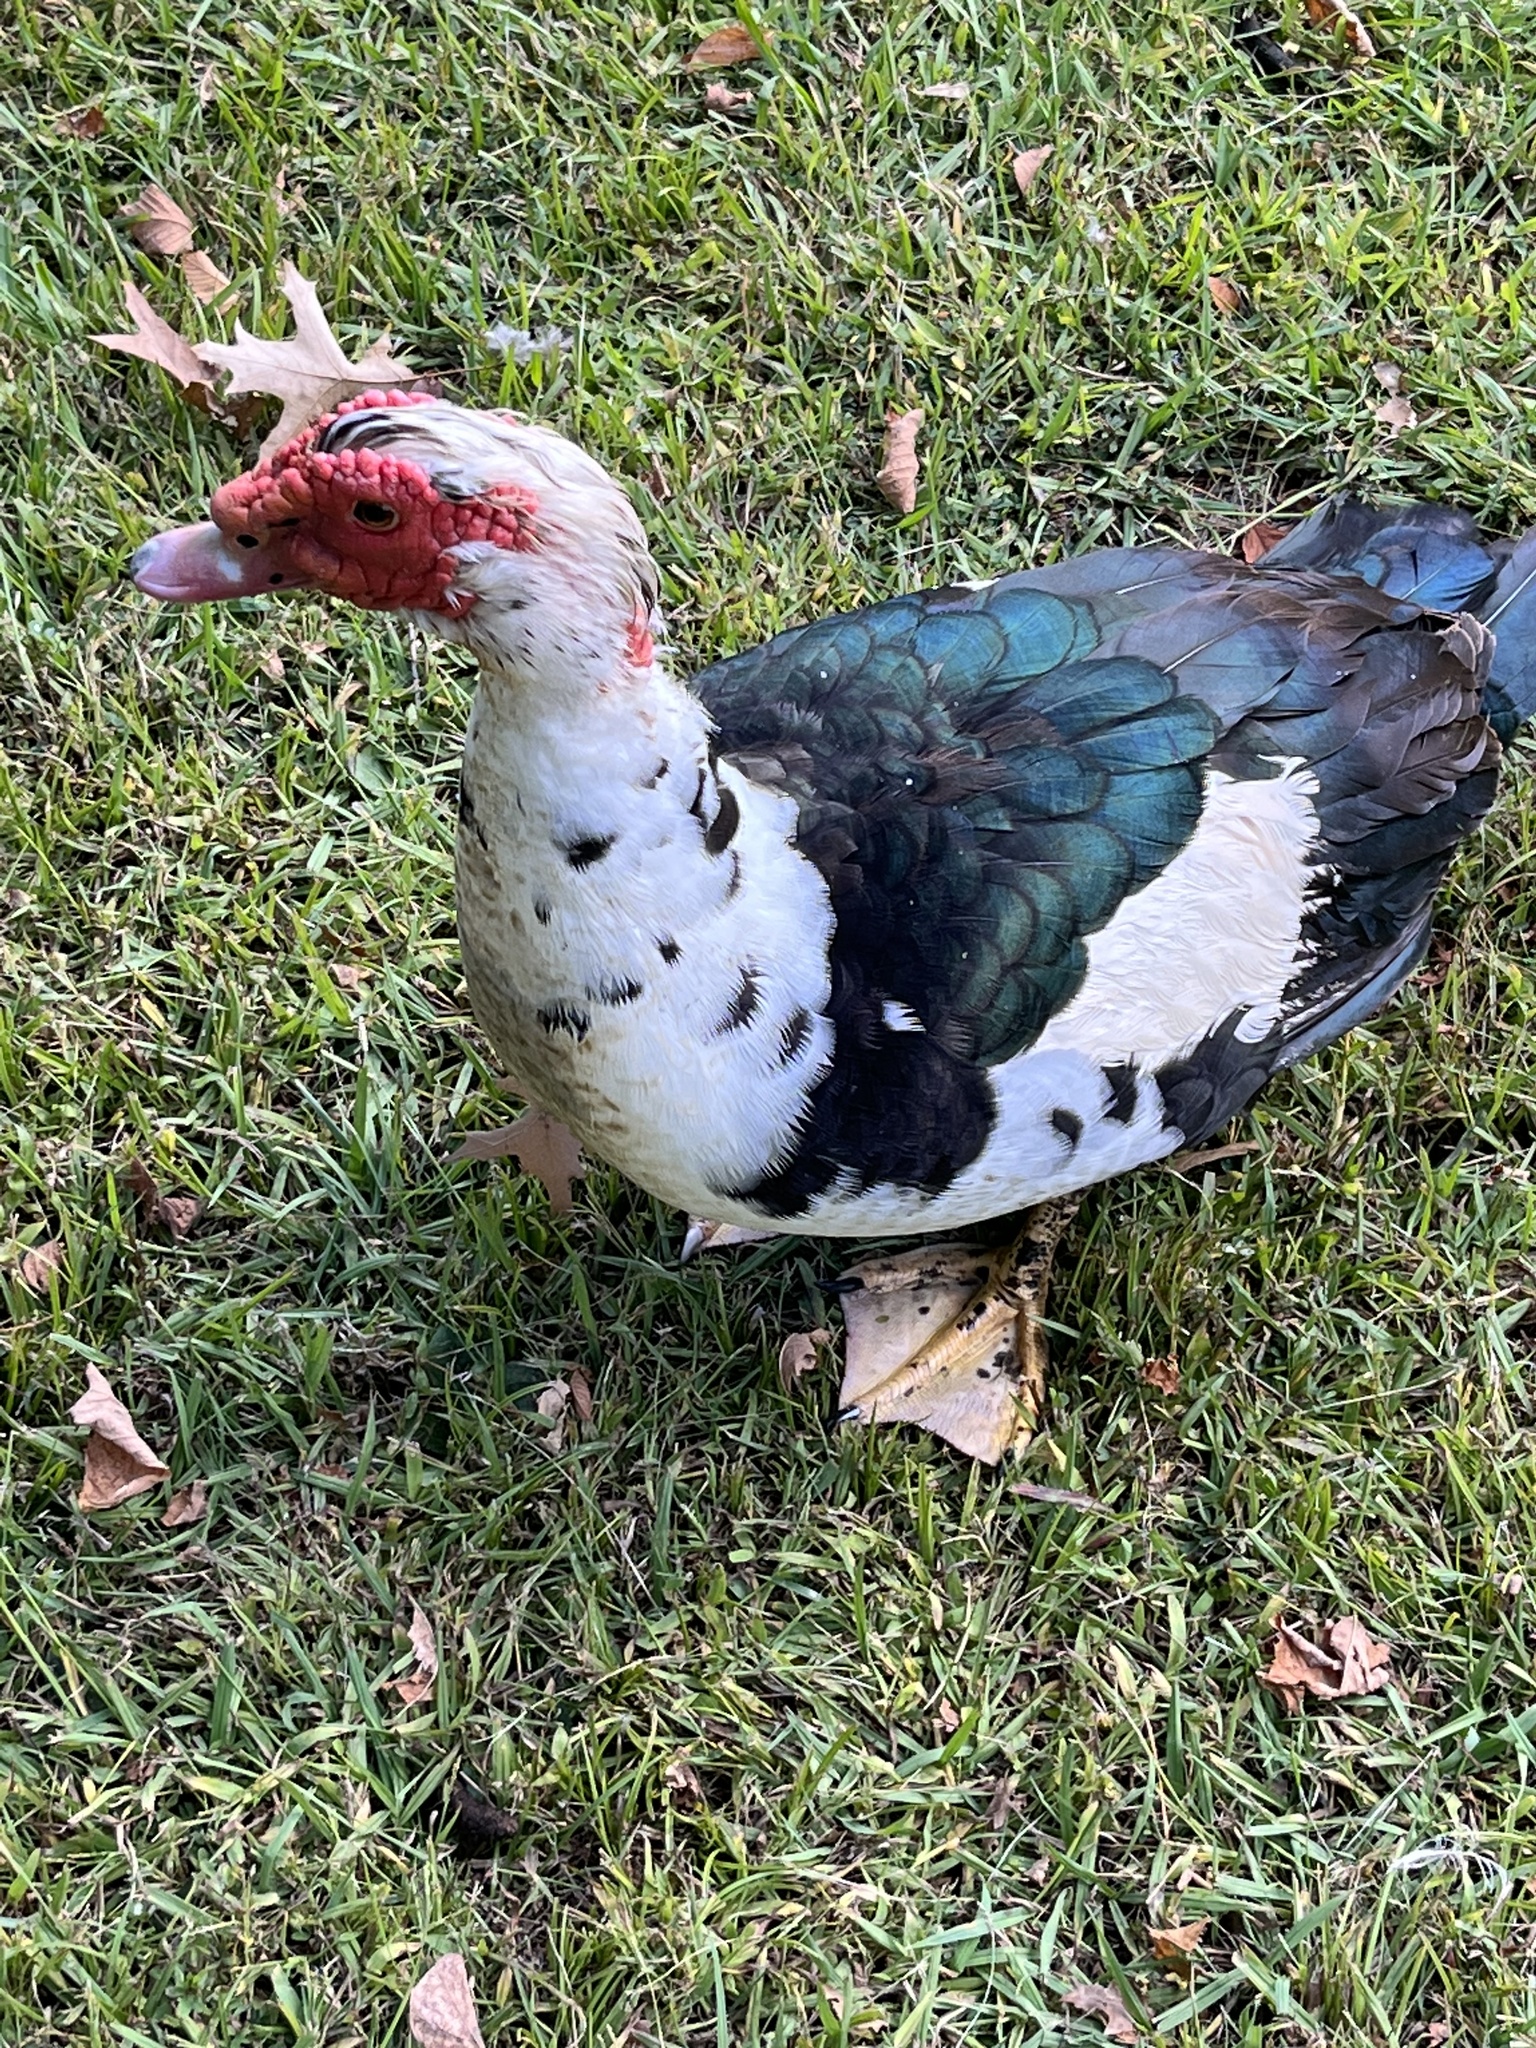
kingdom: Animalia
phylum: Chordata
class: Aves
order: Anseriformes
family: Anatidae
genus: Cairina
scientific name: Cairina moschata
